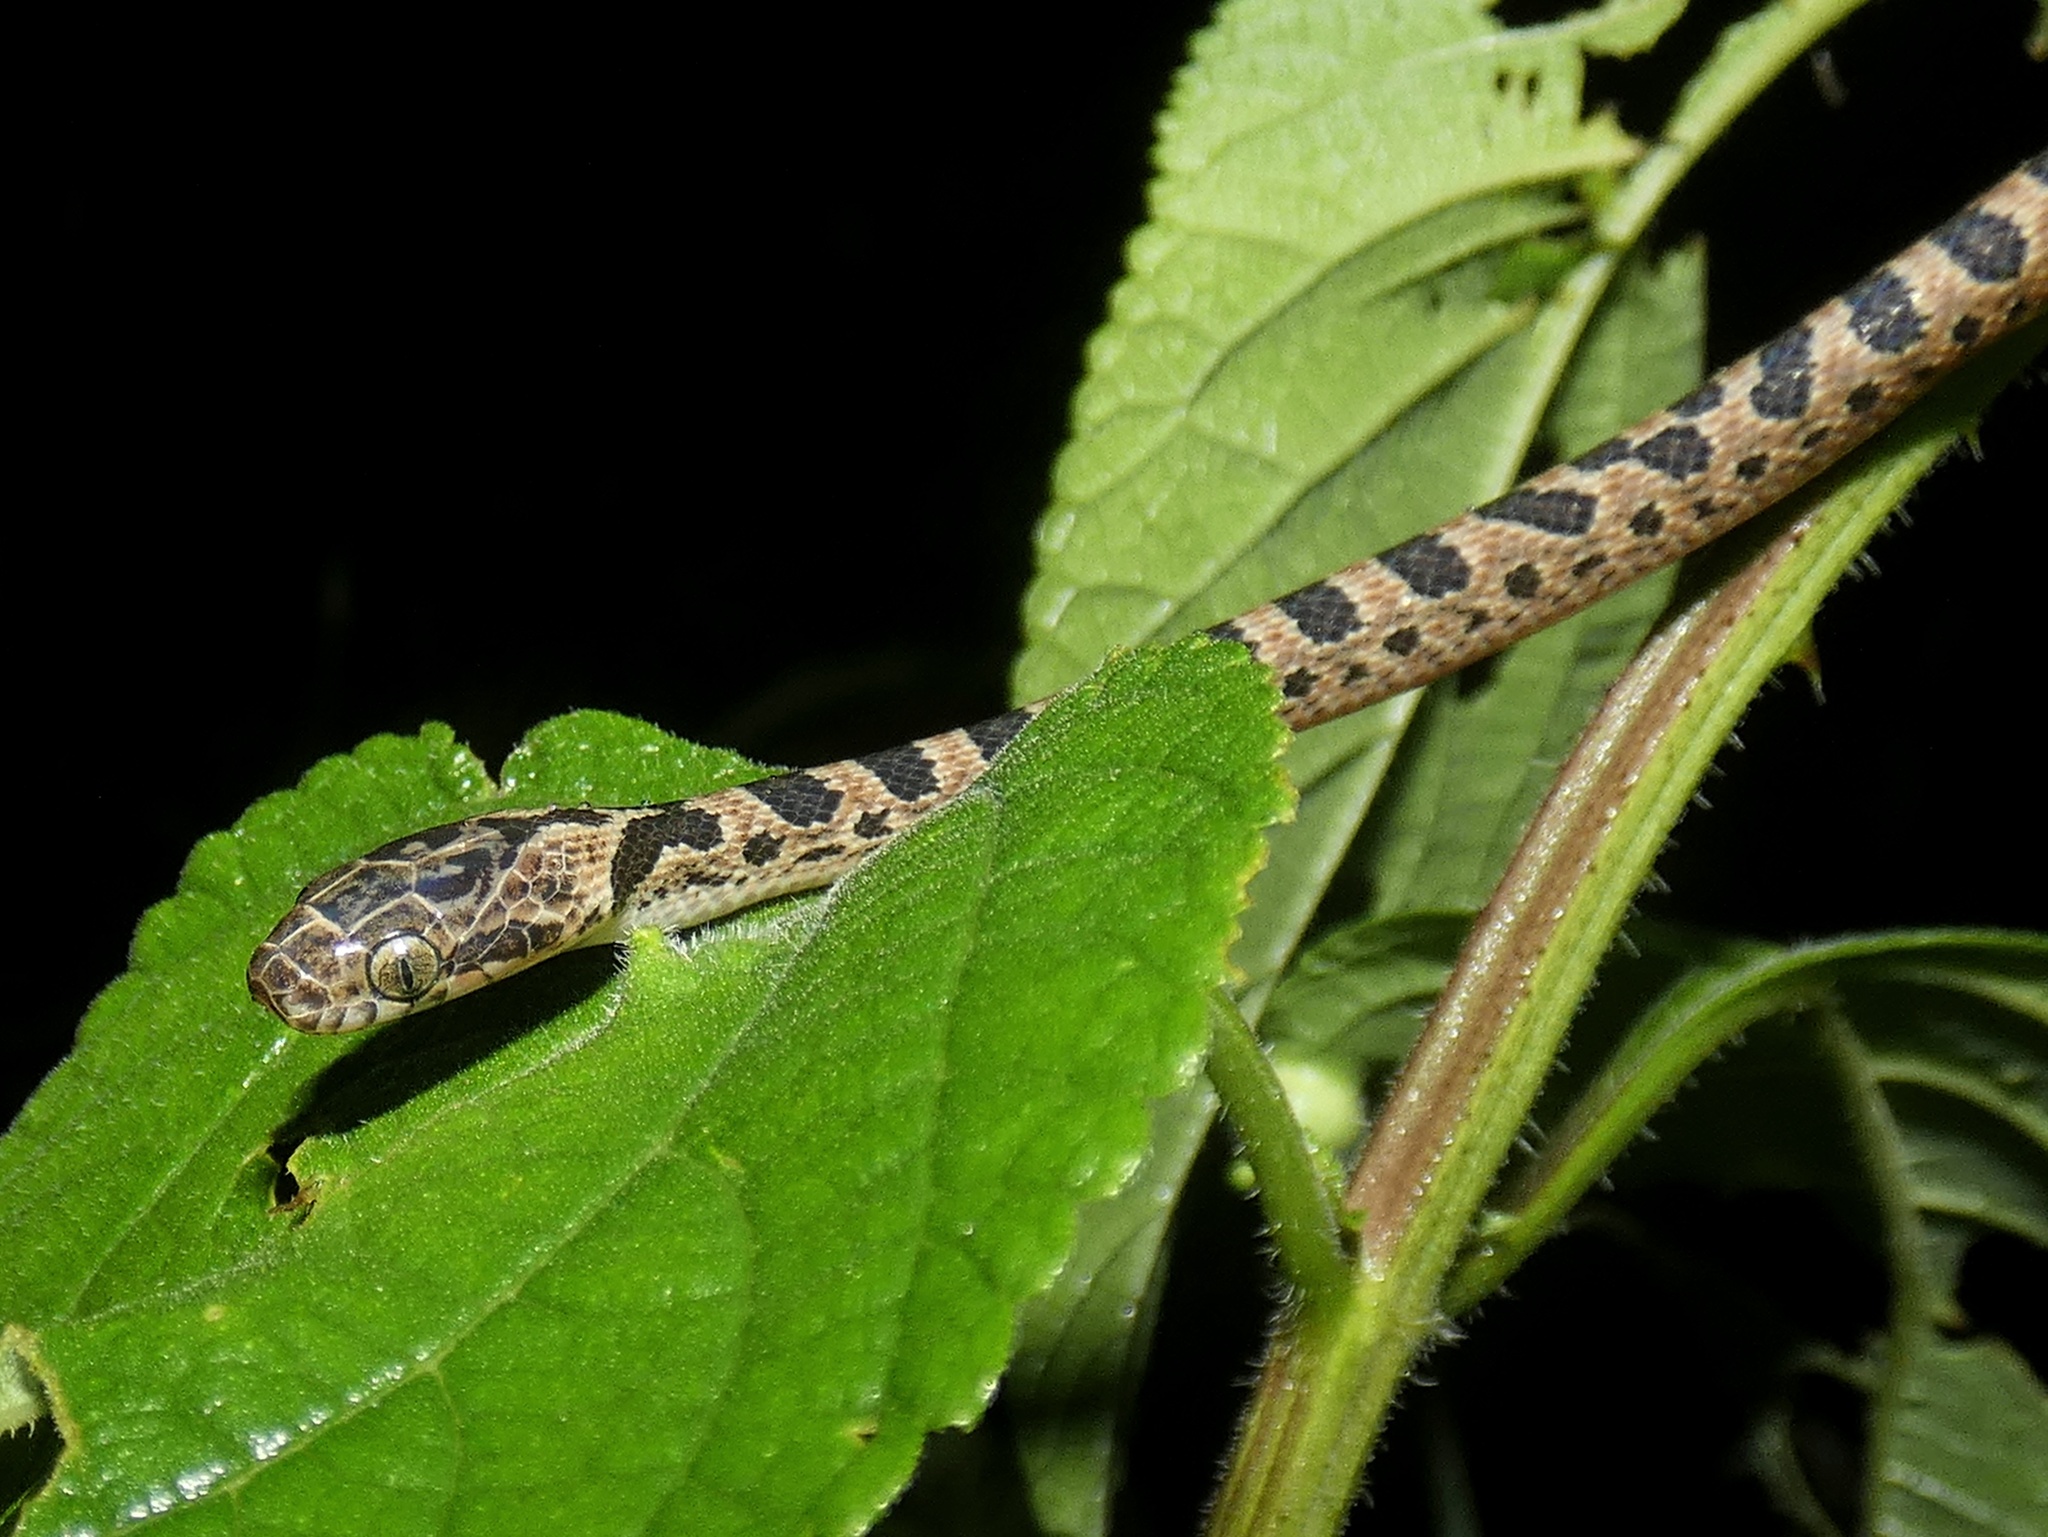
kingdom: Animalia
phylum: Chordata
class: Squamata
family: Colubridae
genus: Leptodeira
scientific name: Leptodeira rhombifera
